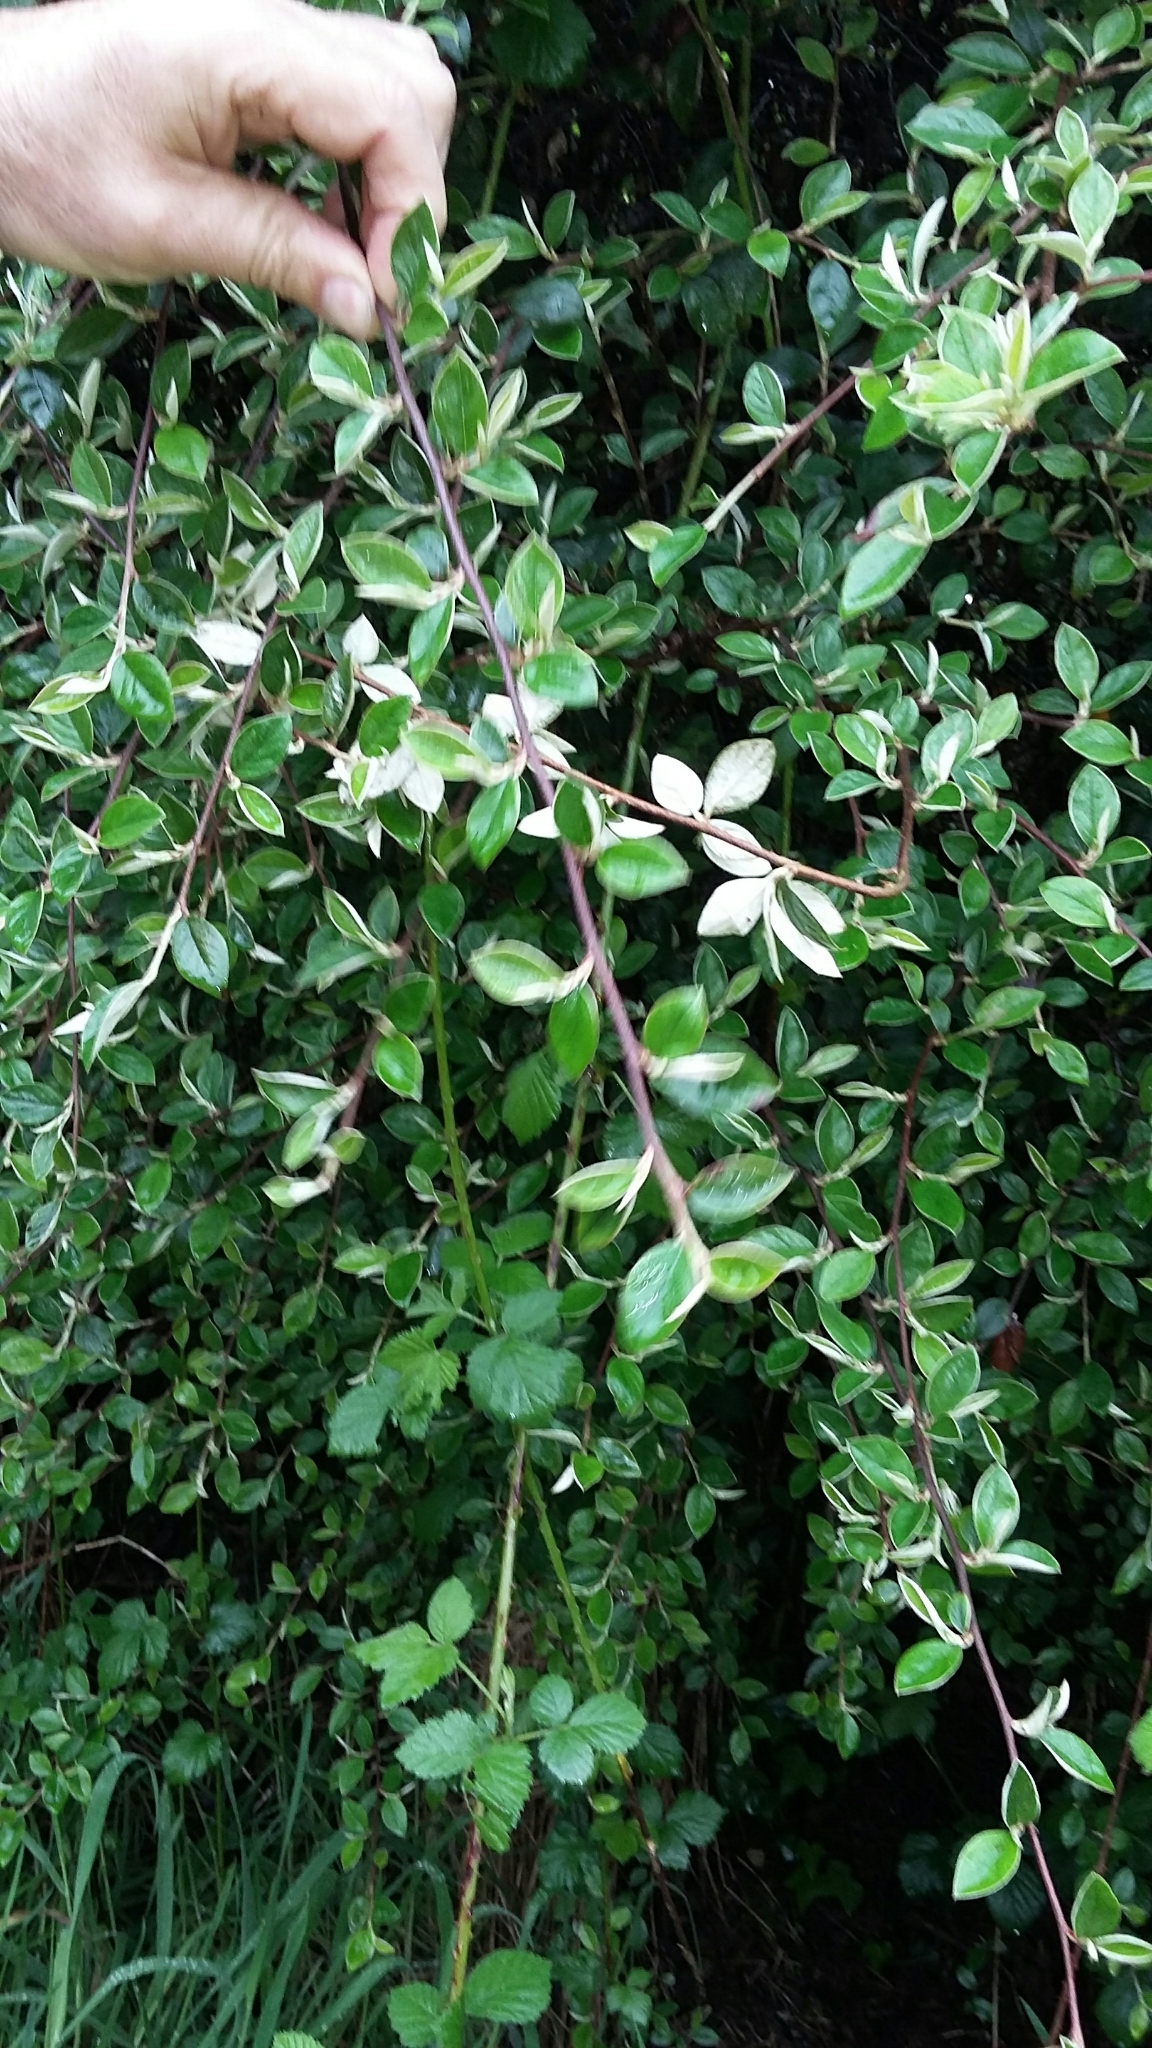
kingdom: Plantae
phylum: Tracheophyta
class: Magnoliopsida
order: Rosales
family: Rosaceae
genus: Cotoneaster
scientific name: Cotoneaster franchetii
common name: Franchet's cotoneaster
